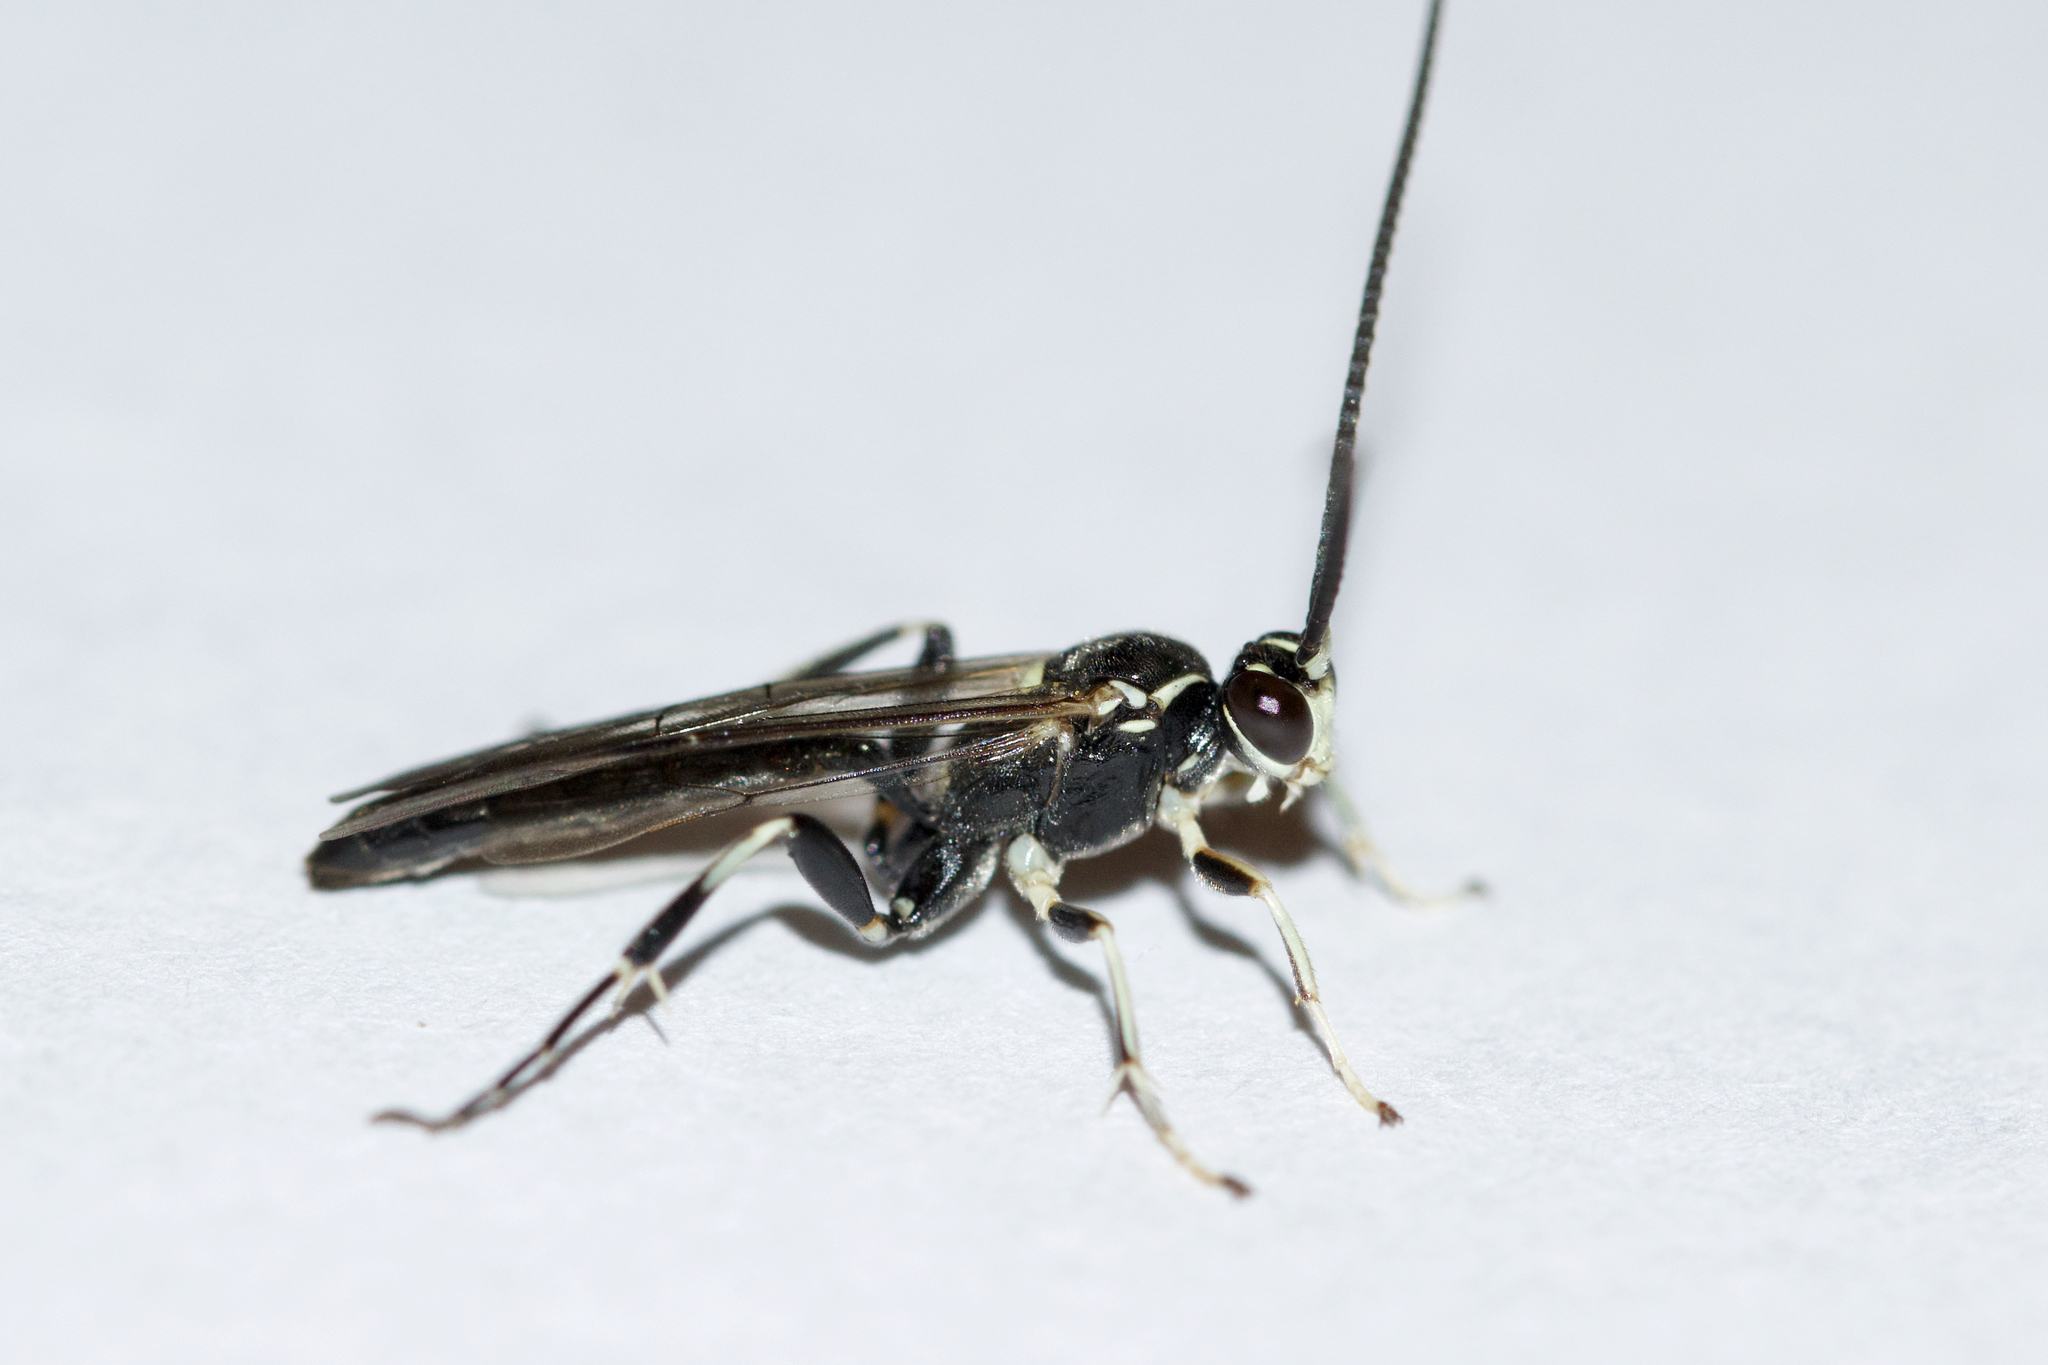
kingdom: Animalia
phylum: Arthropoda
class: Insecta
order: Hymenoptera
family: Ichneumonidae
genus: Cratichneumon
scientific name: Cratichneumon sublatus
